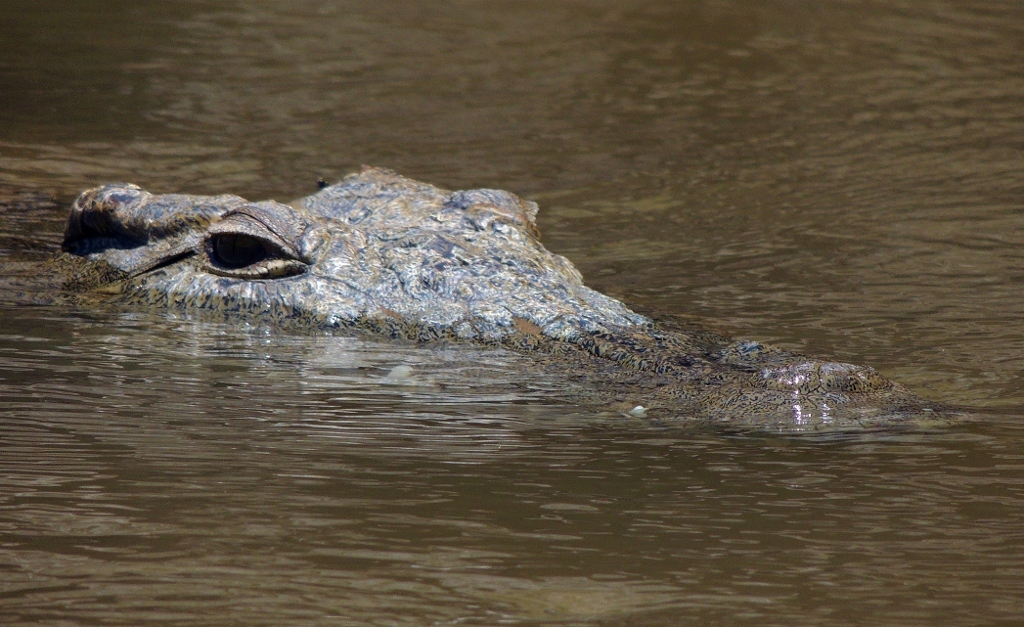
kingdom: Animalia
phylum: Chordata
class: Crocodylia
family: Crocodylidae
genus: Crocodylus
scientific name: Crocodylus niloticus
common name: Nile crocodile
